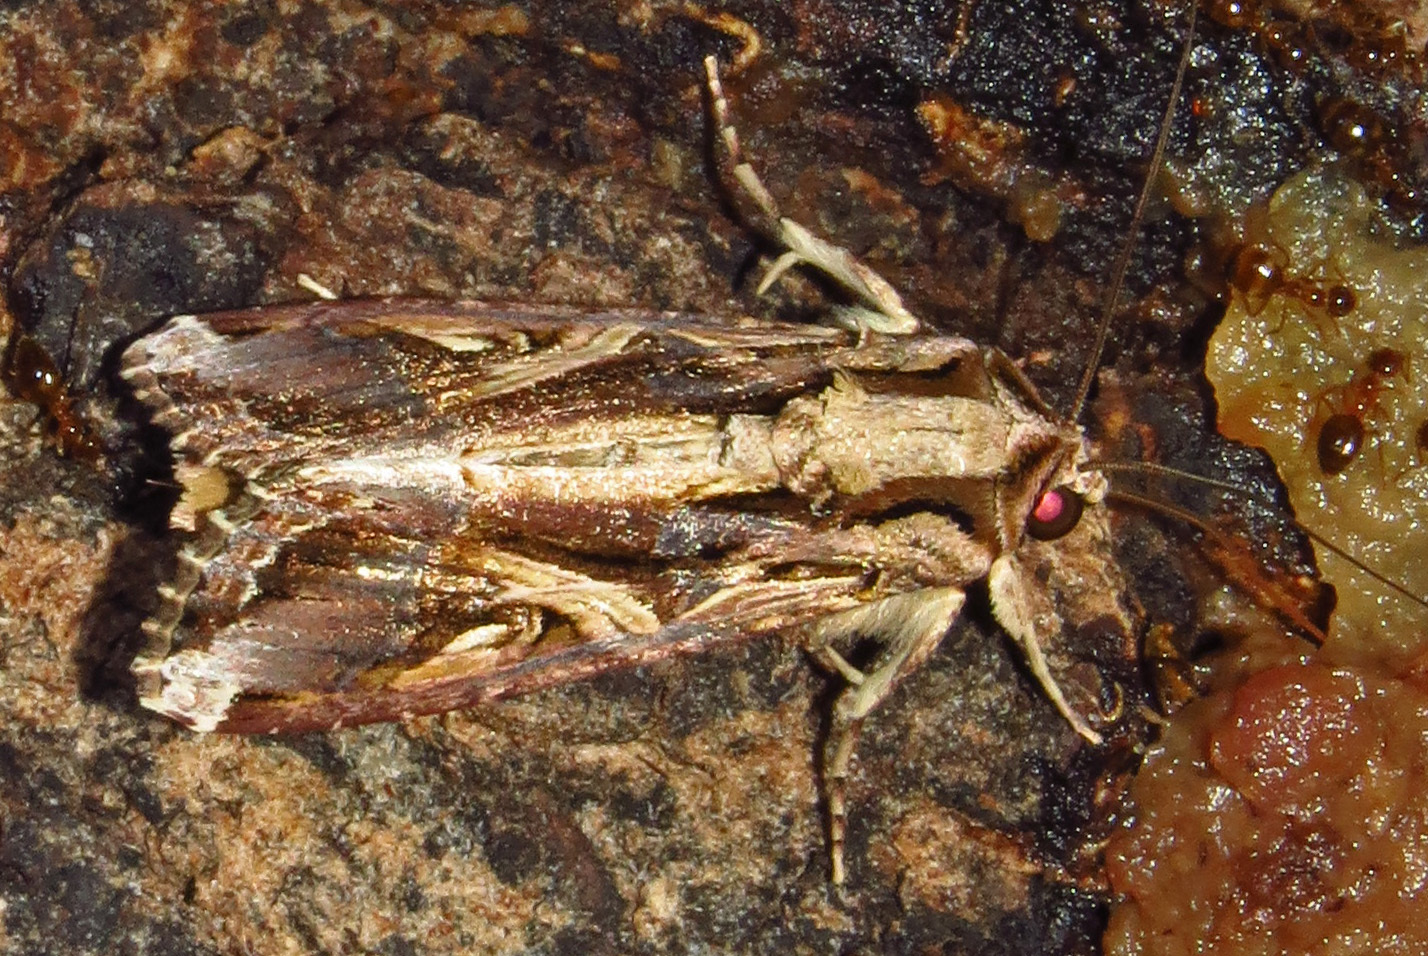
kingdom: Animalia
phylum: Arthropoda
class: Insecta
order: Lepidoptera
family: Noctuidae
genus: Spodoptera
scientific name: Spodoptera dolichos
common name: Sweetpotato armyworm
